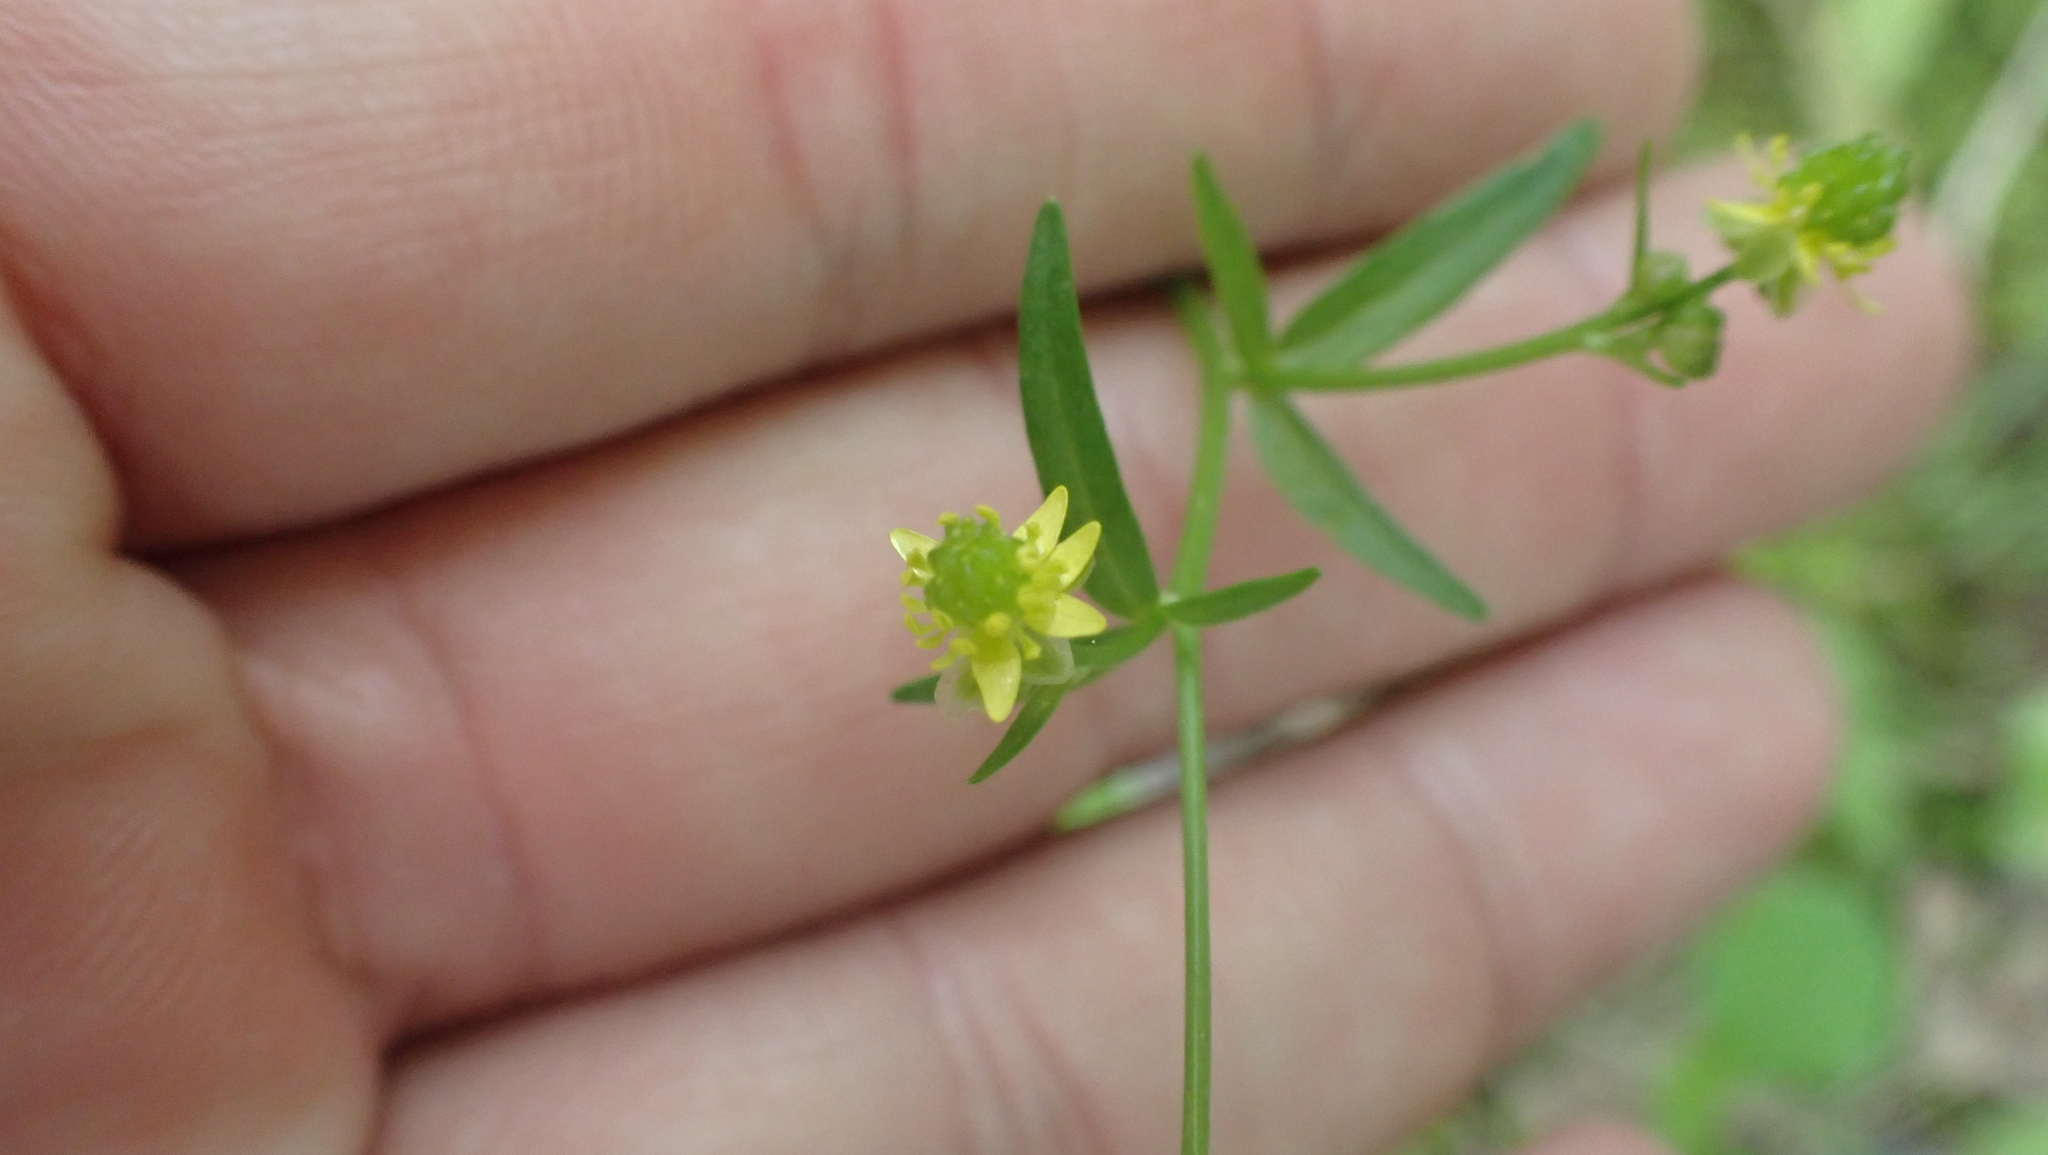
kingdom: Plantae
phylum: Tracheophyta
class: Magnoliopsida
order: Ranunculales
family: Ranunculaceae
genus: Ranunculus
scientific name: Ranunculus abortivus
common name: Early wood buttercup
